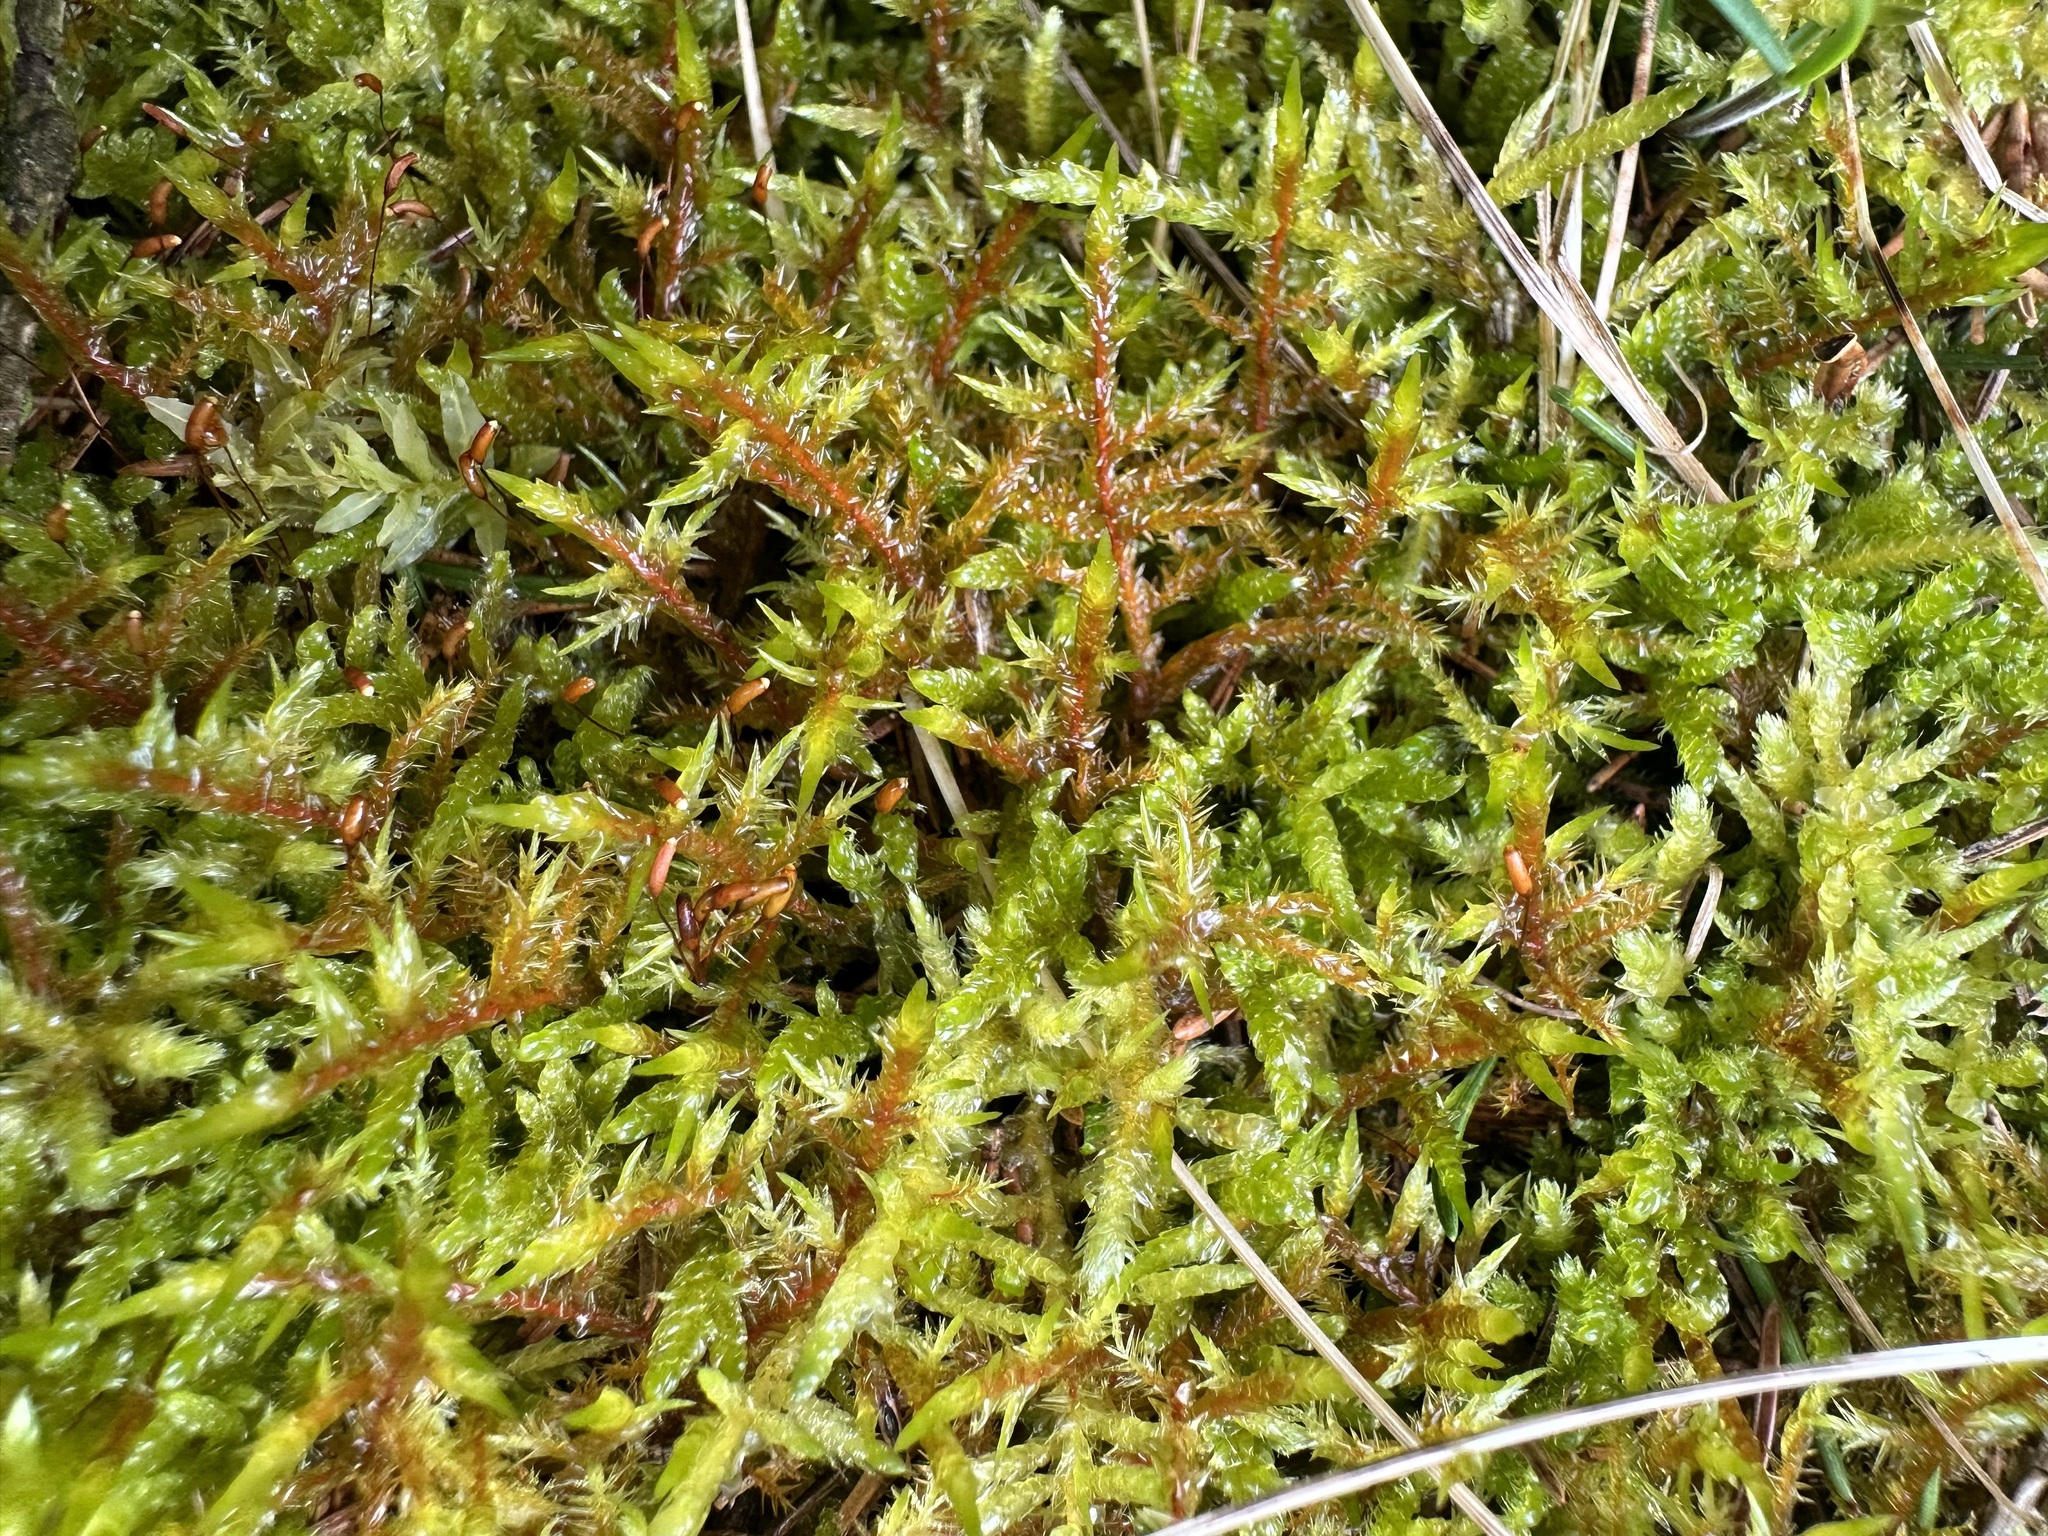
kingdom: Plantae
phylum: Bryophyta
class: Bryopsida
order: Hypnales
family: Pylaisiaceae
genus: Calliergonella
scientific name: Calliergonella cuspidata
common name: Common large wetland moss
